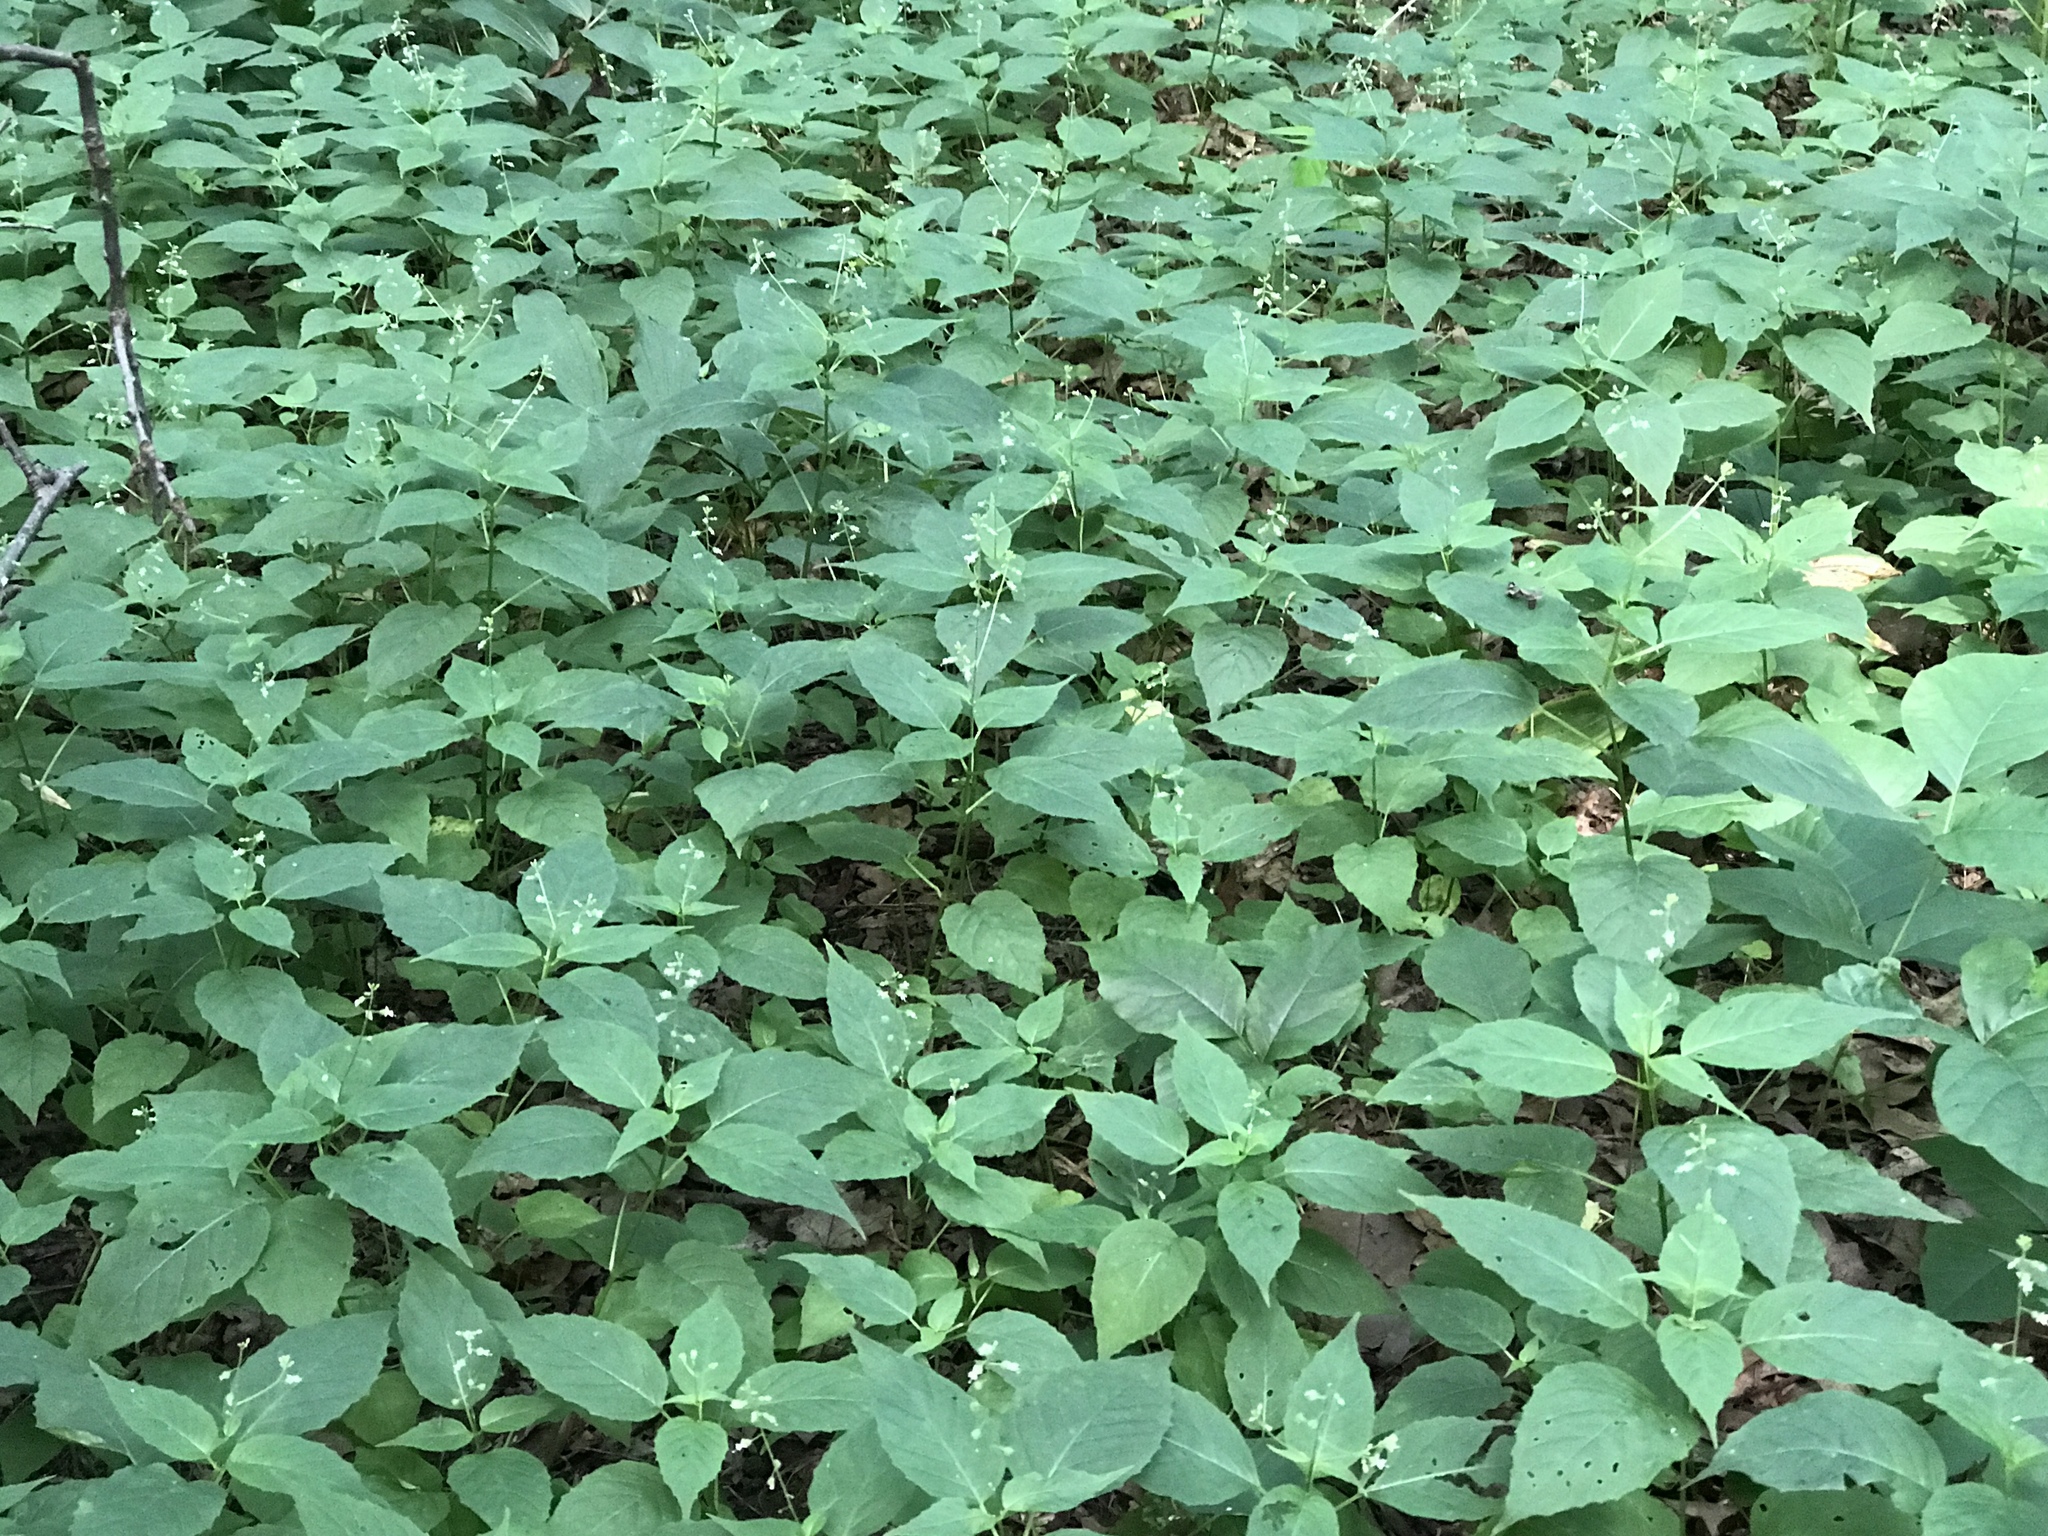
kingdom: Plantae
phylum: Tracheophyta
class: Magnoliopsida
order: Myrtales
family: Onagraceae
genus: Circaea
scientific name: Circaea canadensis
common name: Broad-leaved enchanter's nightshade
